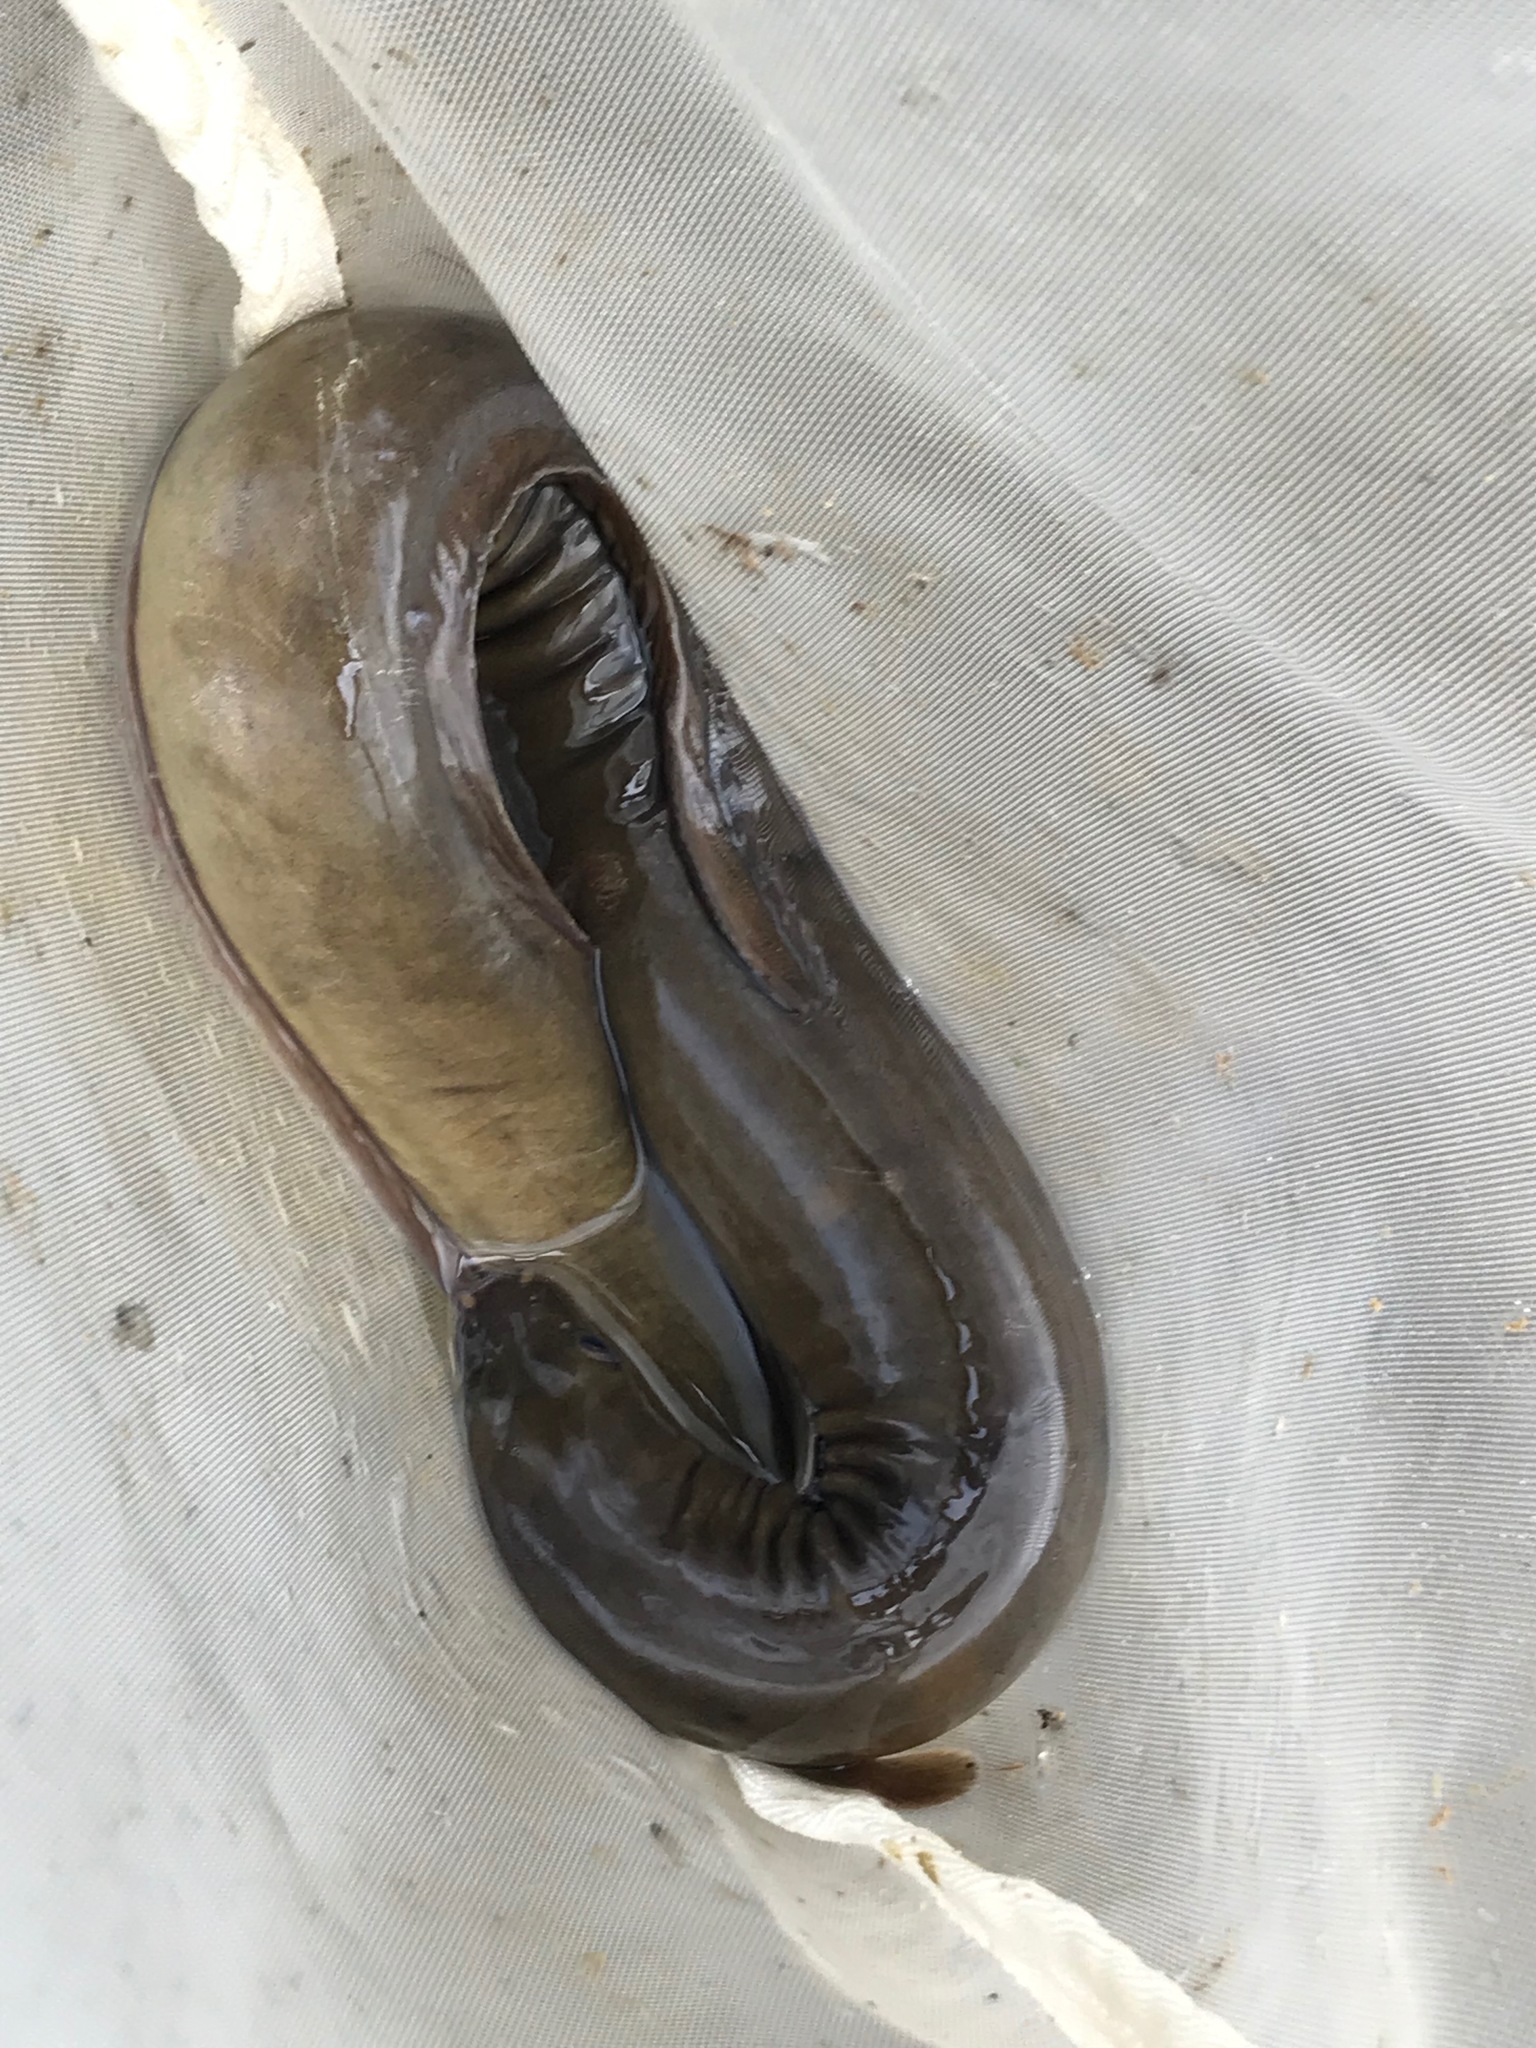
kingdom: Animalia
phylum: Chordata
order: Anguilliformes
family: Anguillidae
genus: Anguilla
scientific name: Anguilla dieffenbachii
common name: New zealand longfin eel
